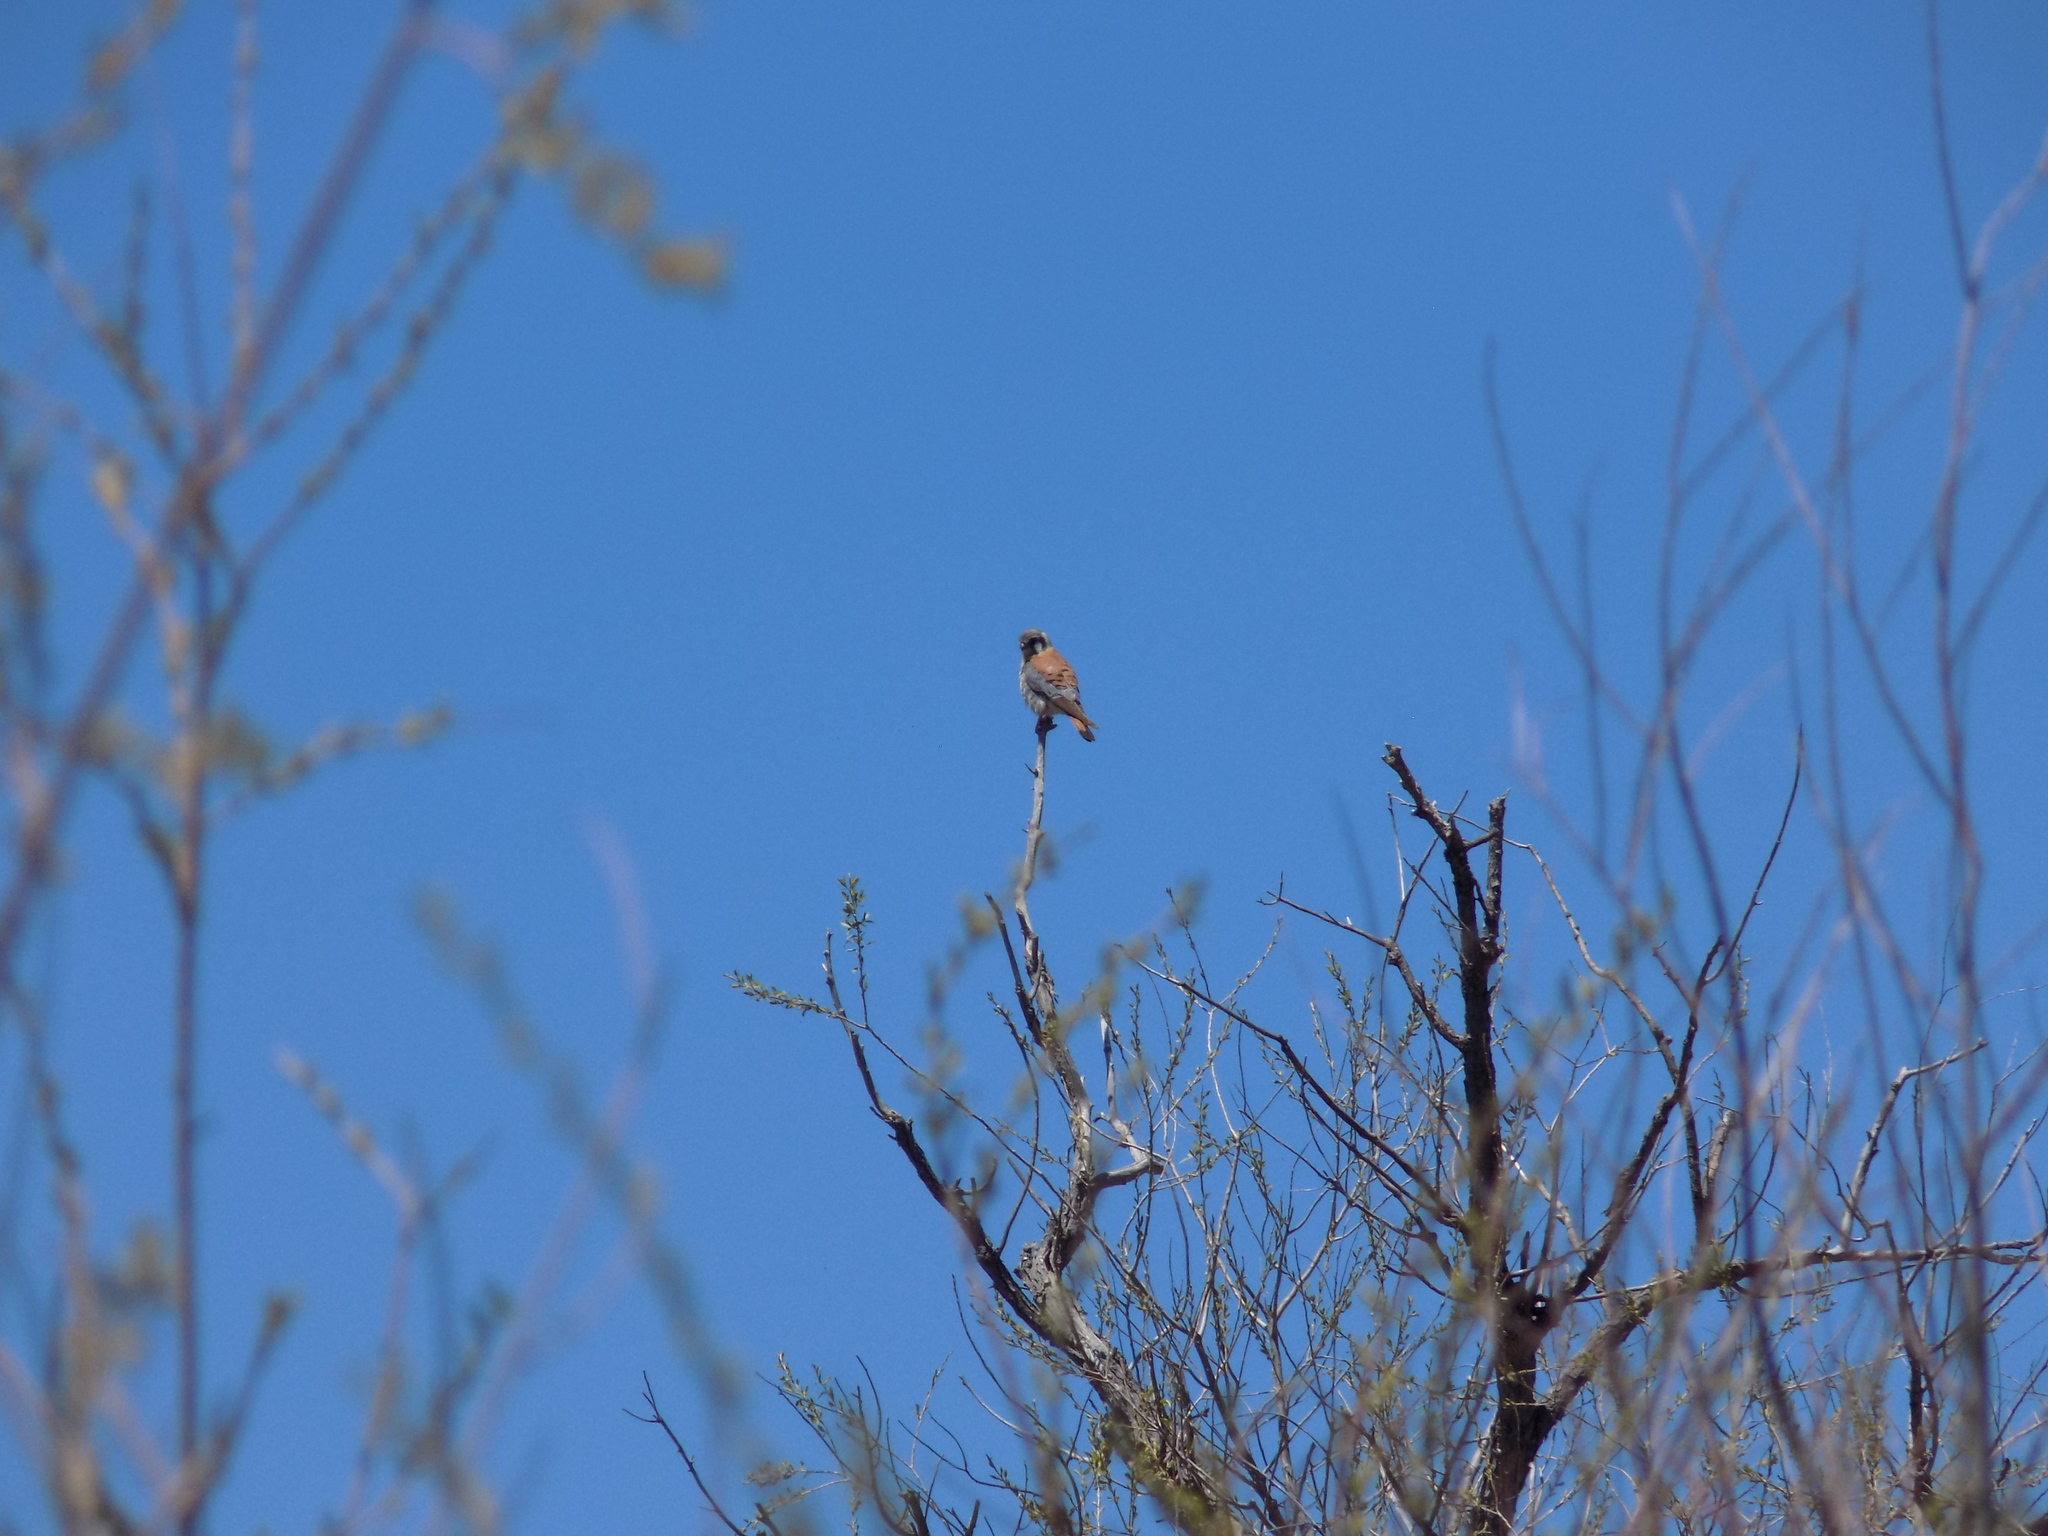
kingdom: Animalia
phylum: Chordata
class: Aves
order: Falconiformes
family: Falconidae
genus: Falco
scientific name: Falco sparverius
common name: American kestrel
